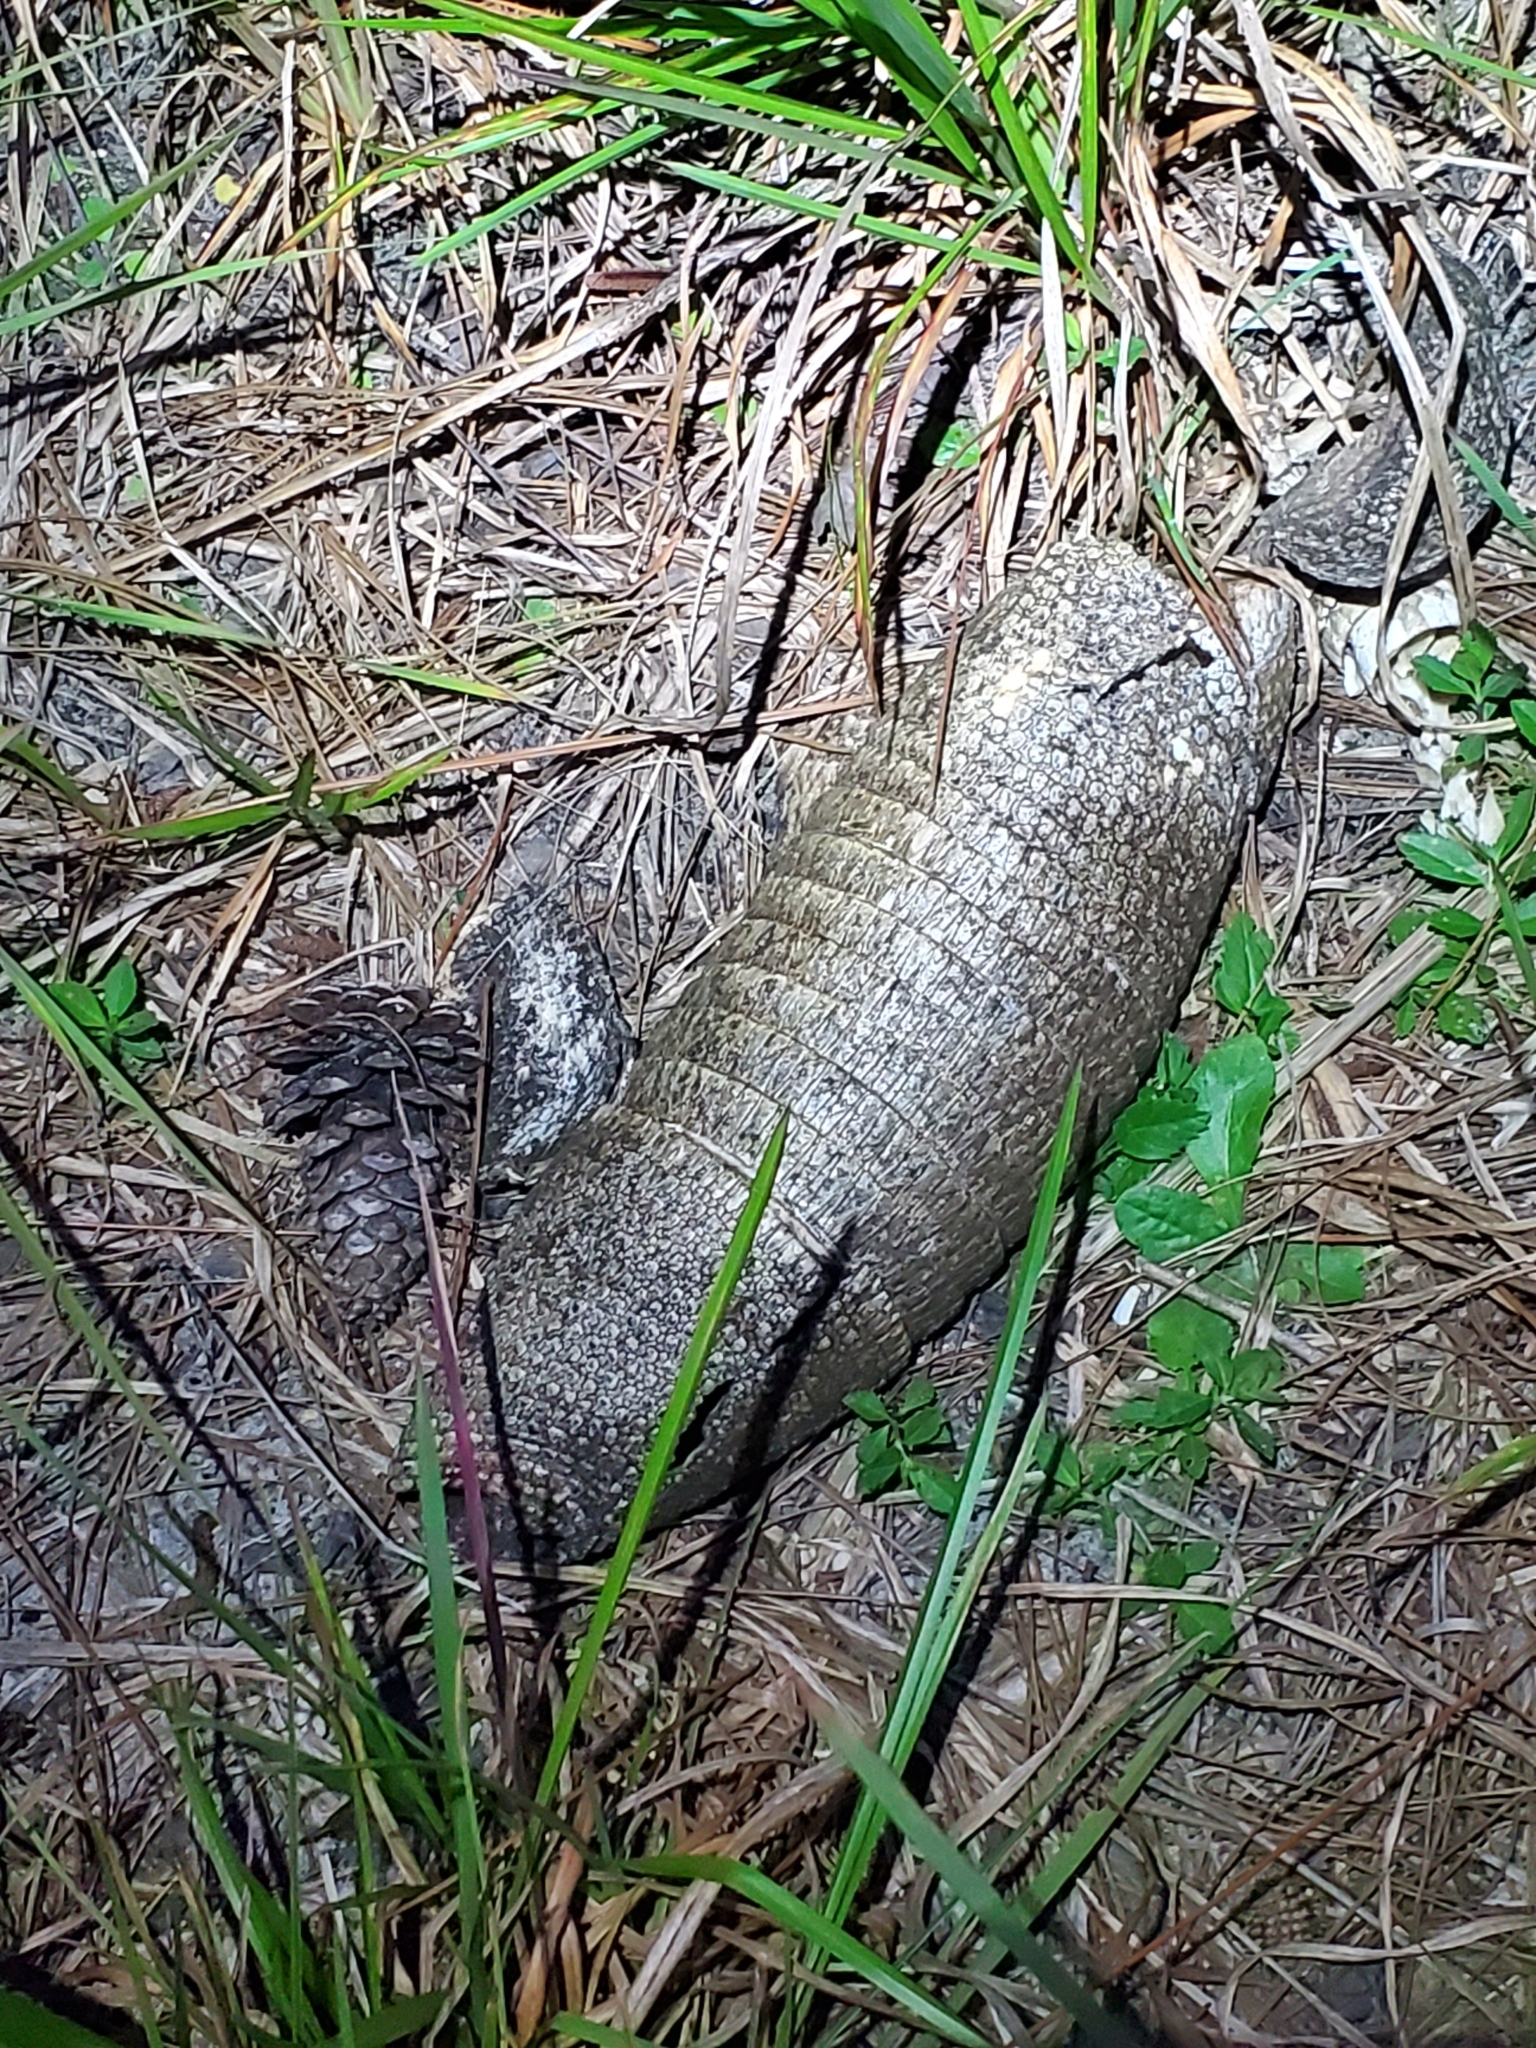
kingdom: Animalia
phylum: Chordata
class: Mammalia
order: Cingulata
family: Dasypodidae
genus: Dasypus
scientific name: Dasypus novemcinctus
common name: Nine-banded armadillo
